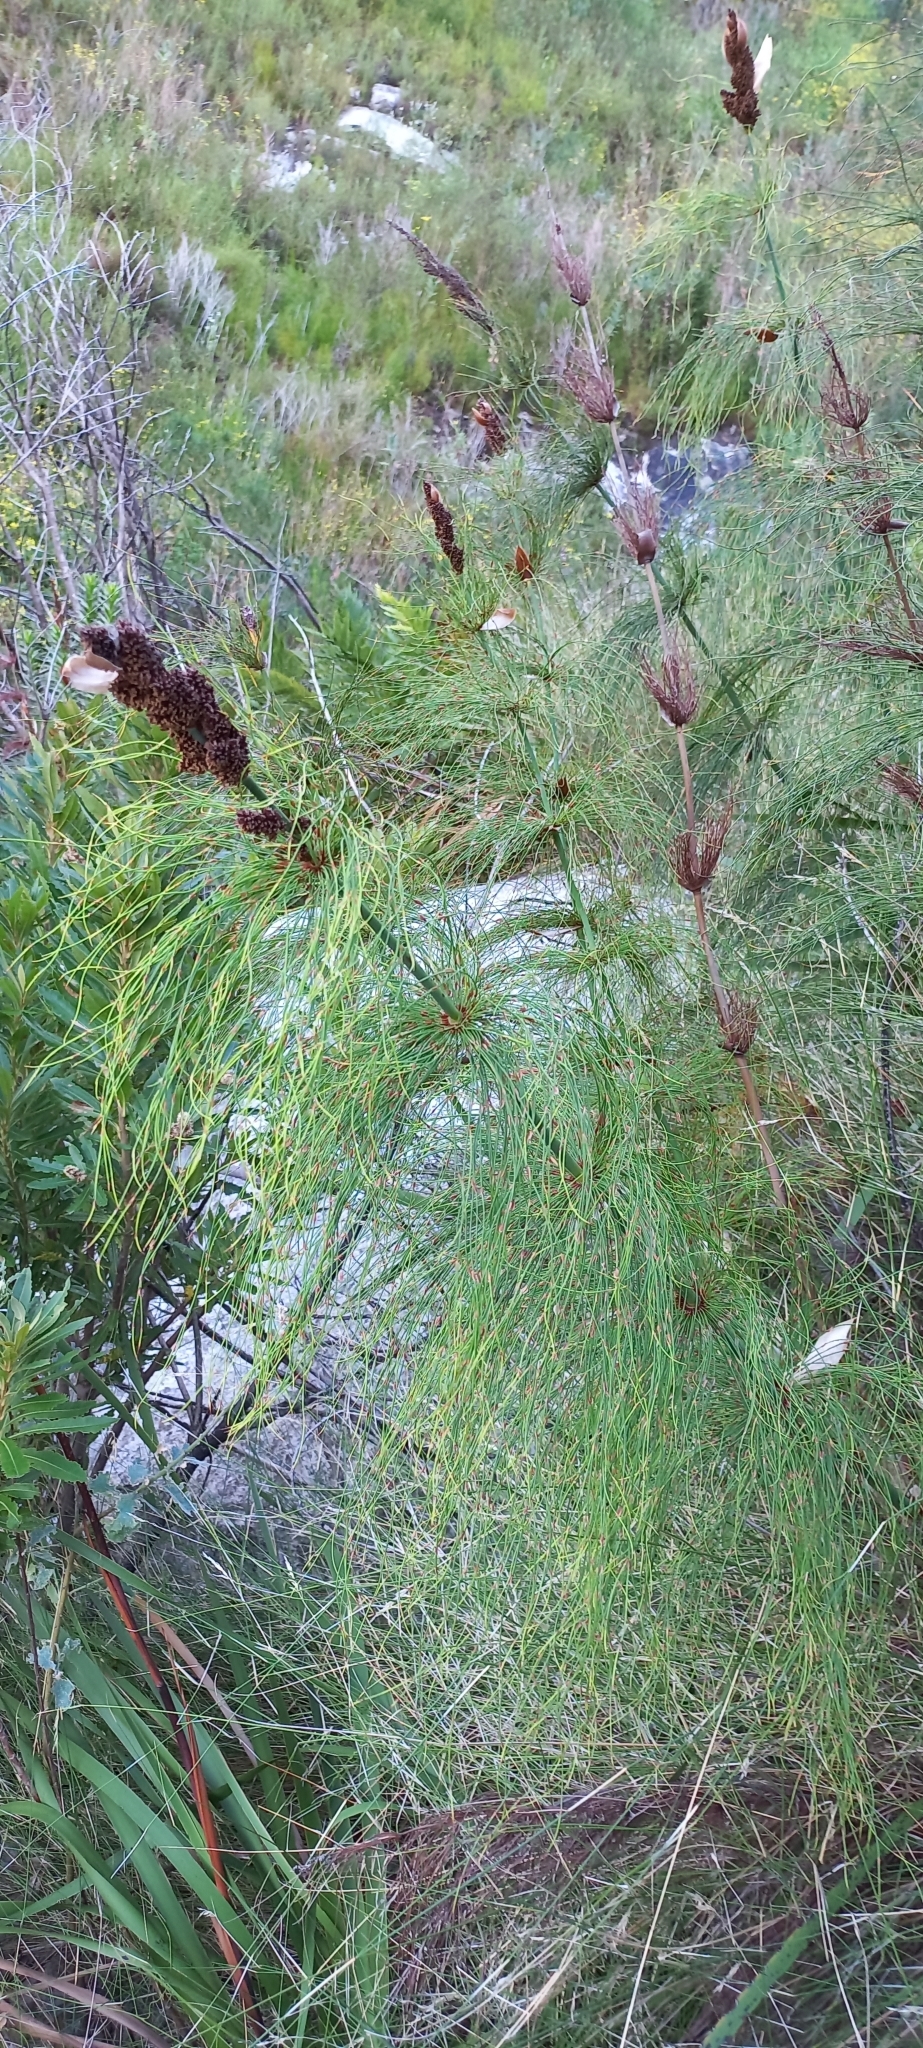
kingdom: Plantae
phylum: Tracheophyta
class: Liliopsida
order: Poales
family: Restionaceae
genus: Elegia
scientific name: Elegia capensis
